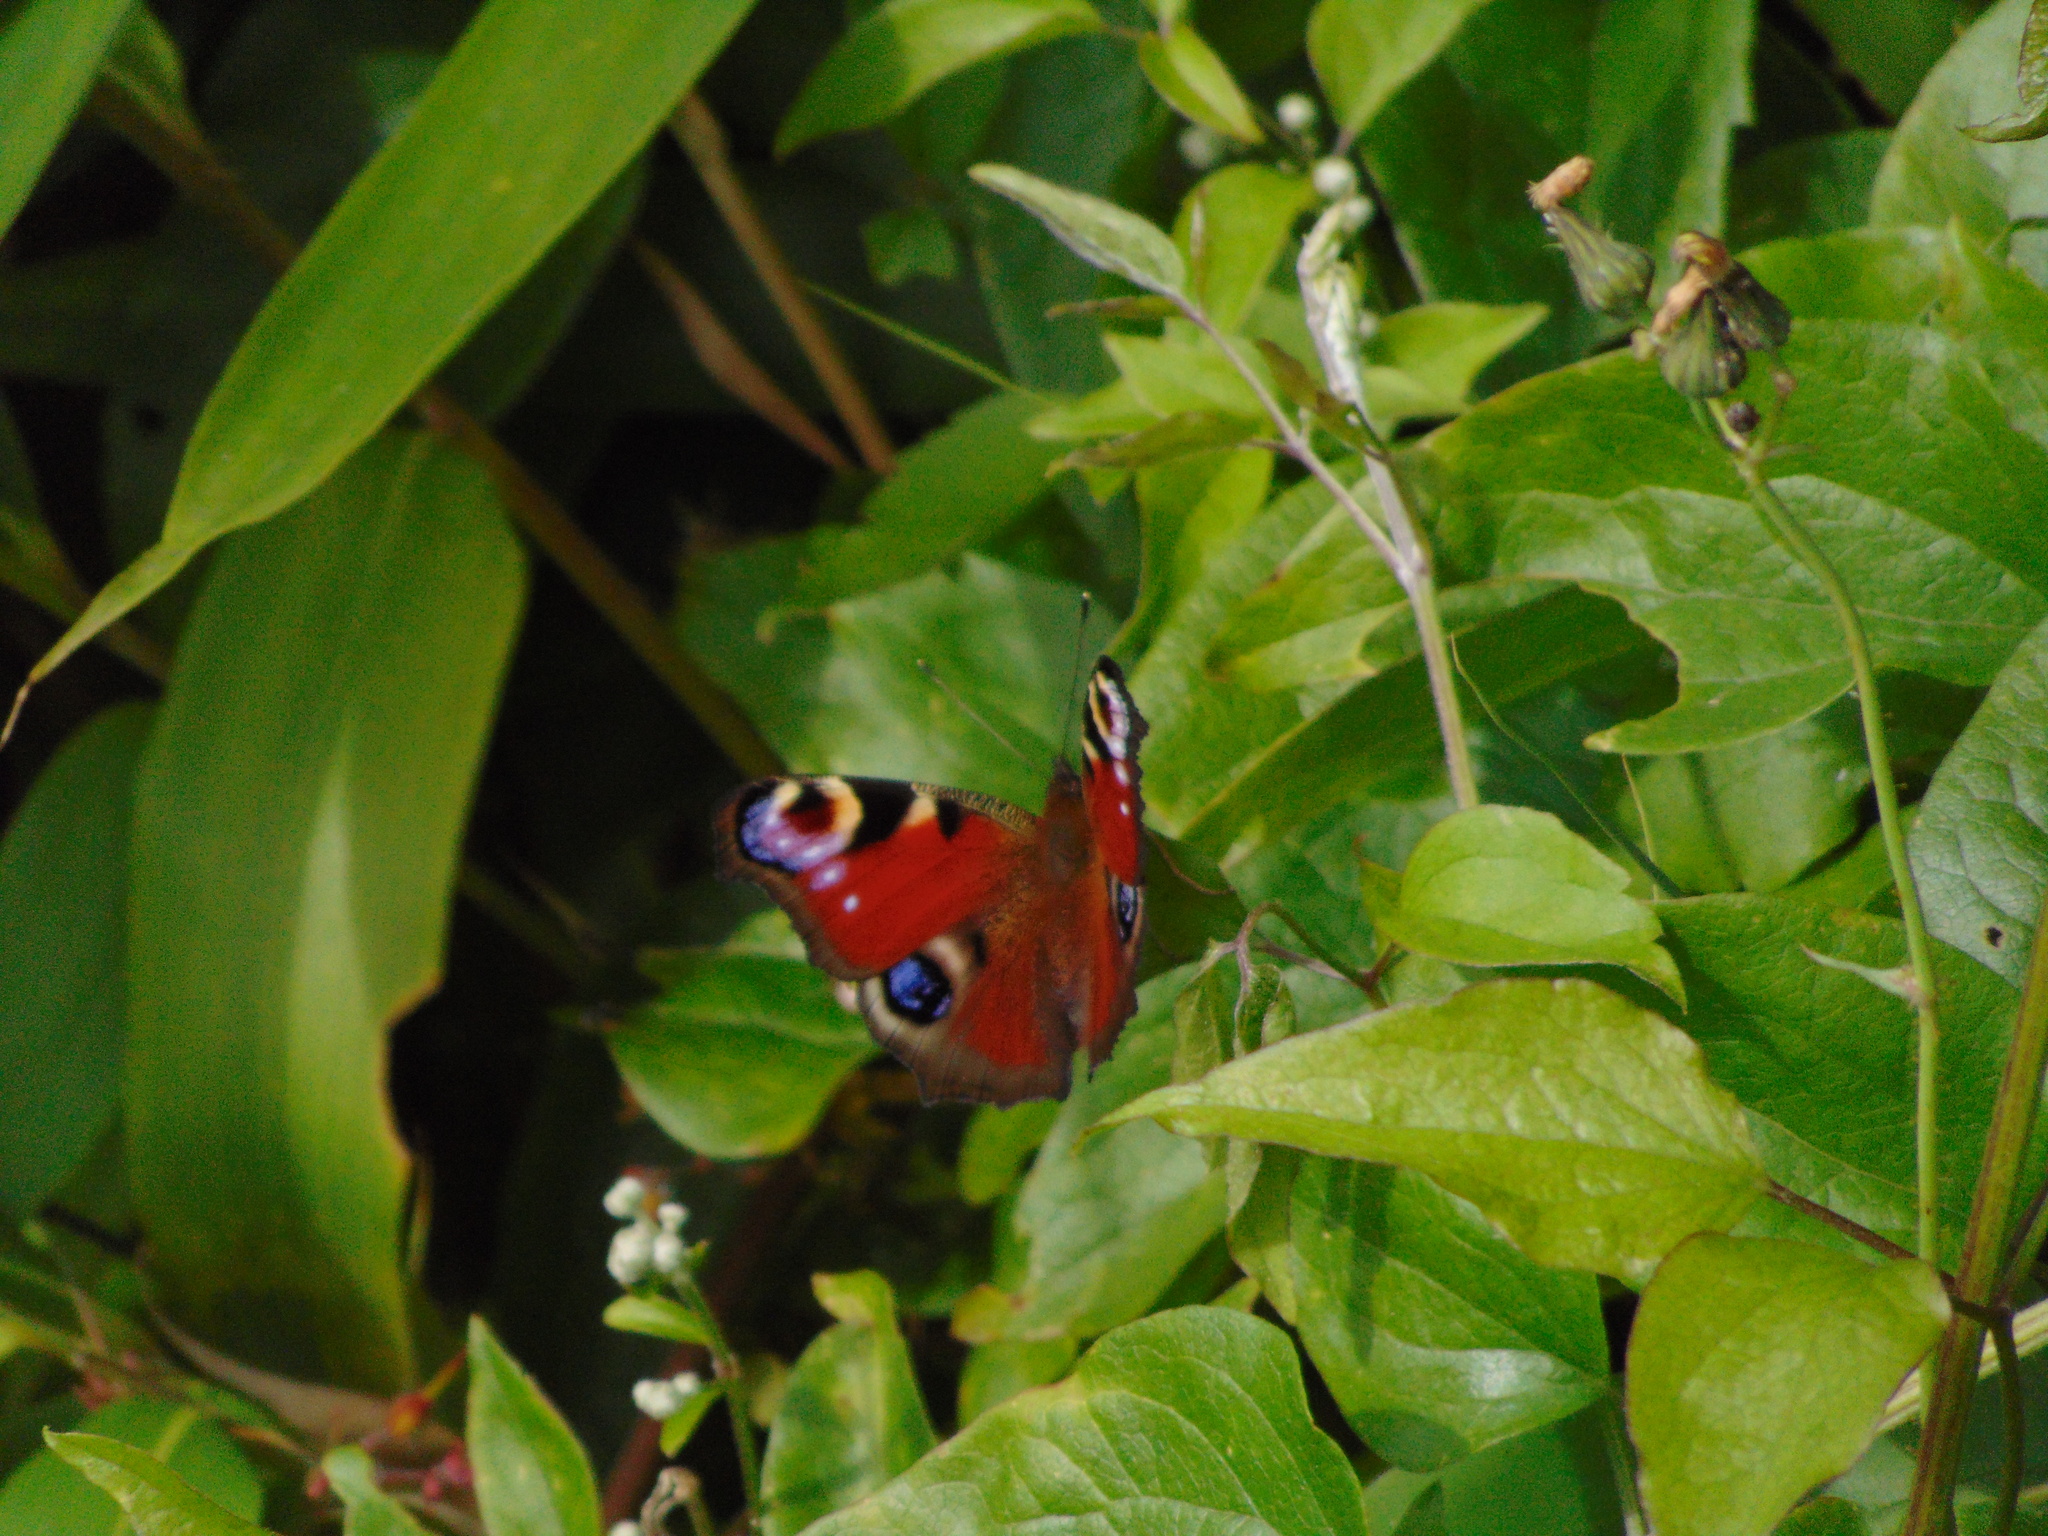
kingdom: Animalia
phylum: Arthropoda
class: Insecta
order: Lepidoptera
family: Nymphalidae
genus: Aglais
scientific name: Aglais io
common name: Peacock
